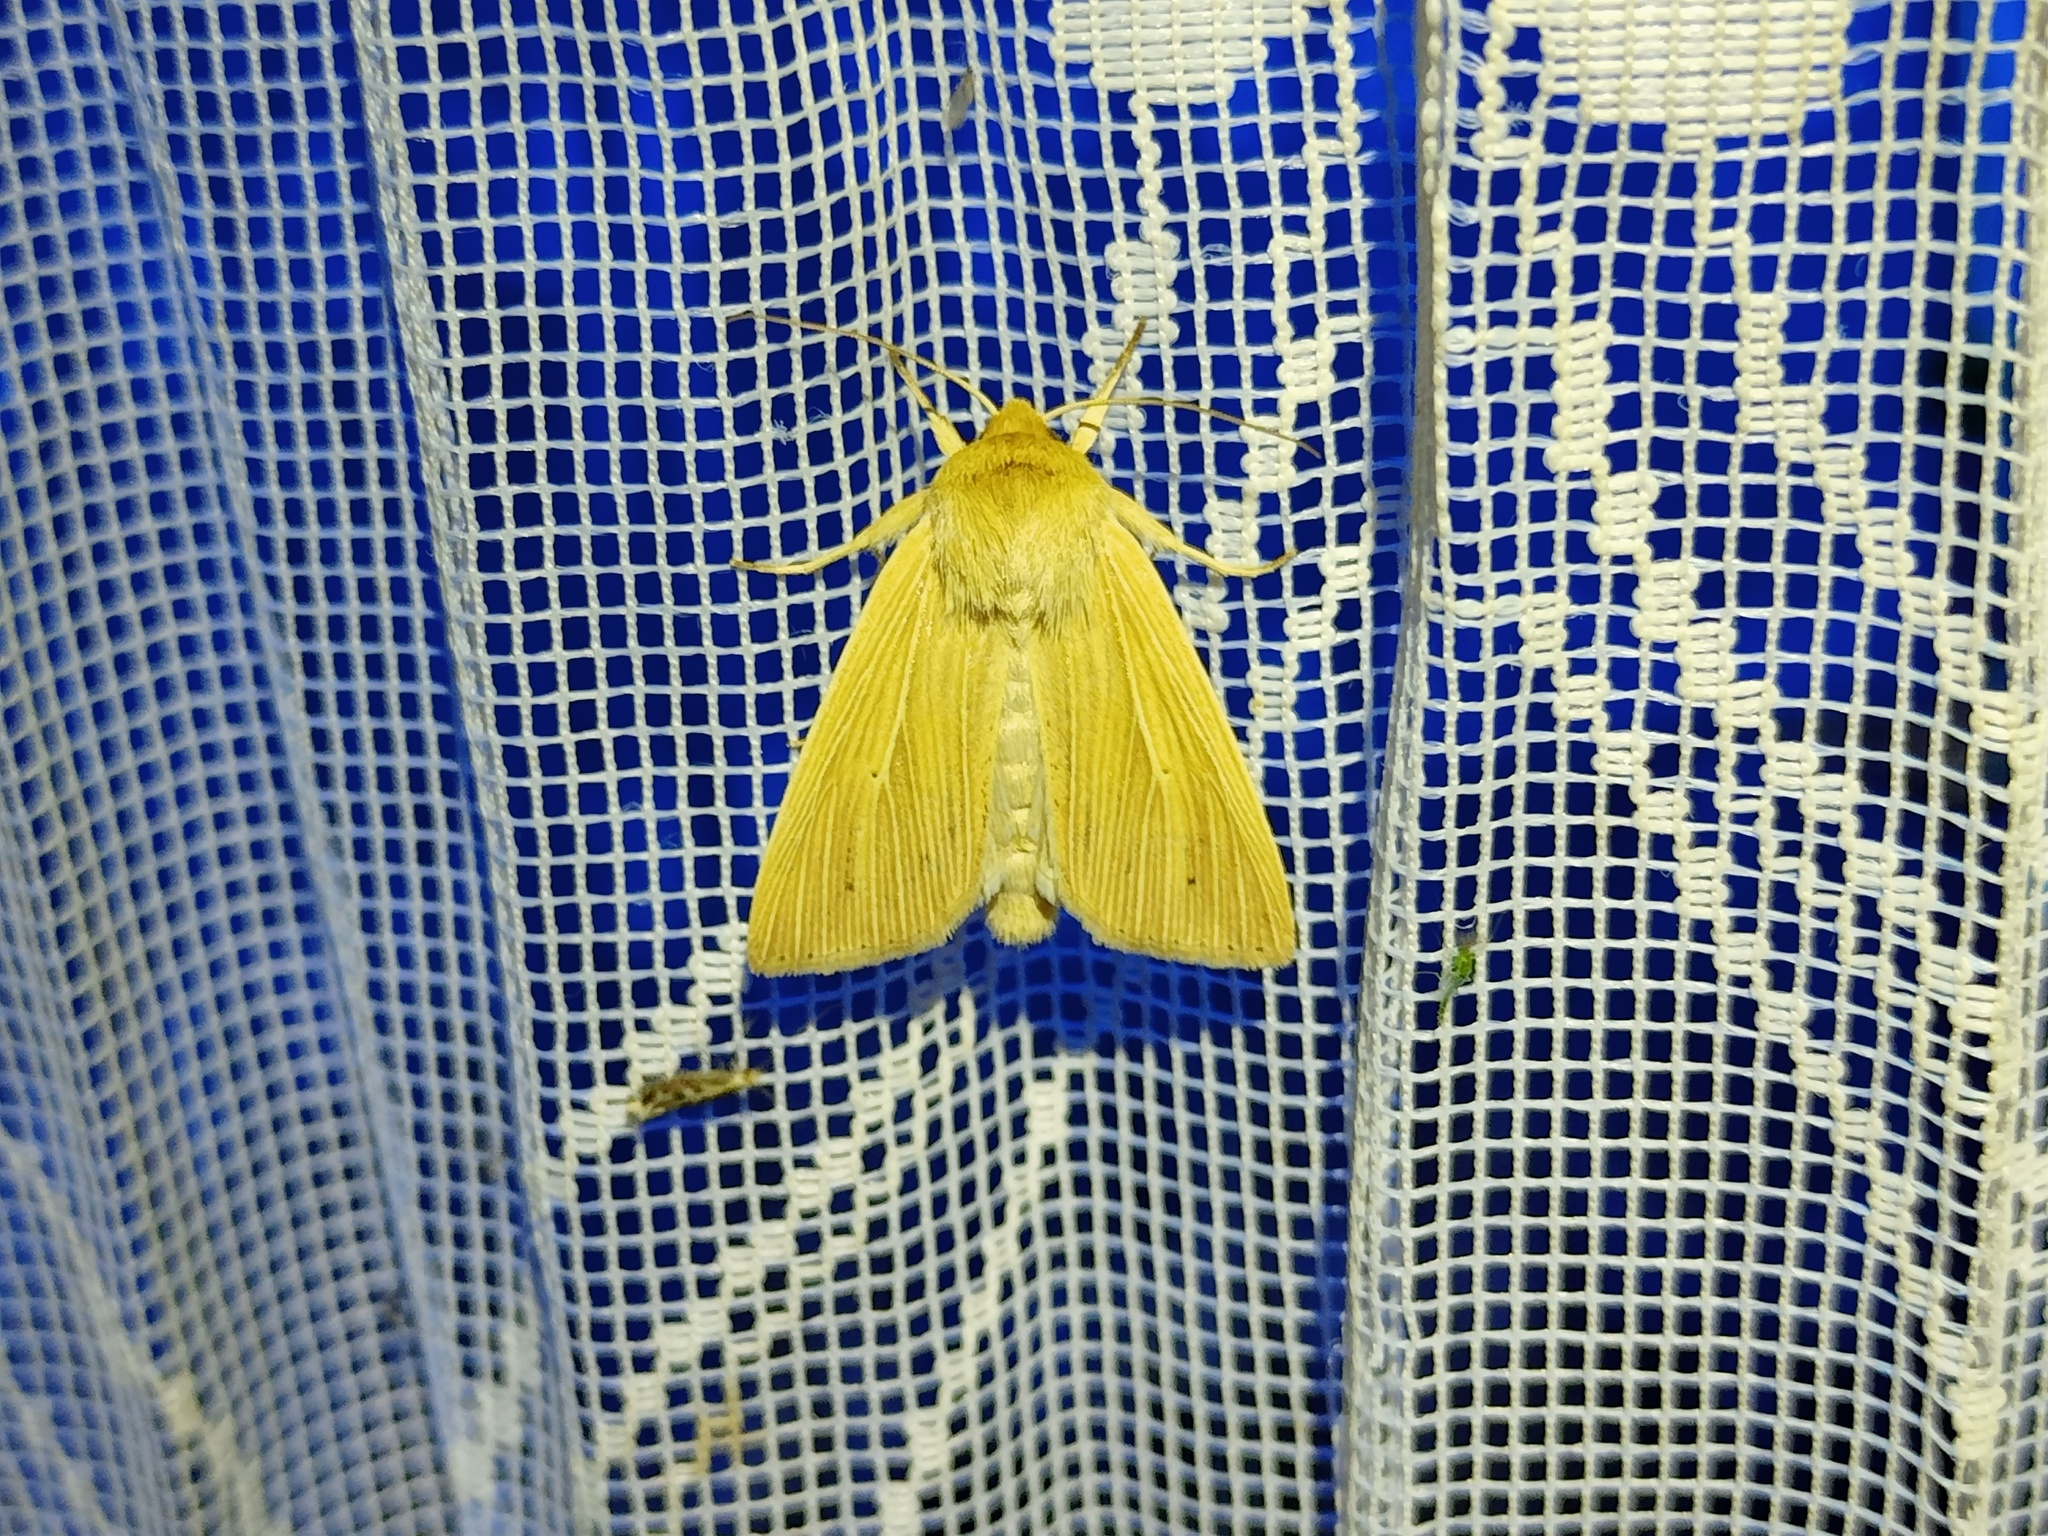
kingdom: Animalia
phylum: Arthropoda
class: Insecta
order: Lepidoptera
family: Noctuidae
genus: Mythimna
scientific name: Mythimna pallens
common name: Common wainscot
